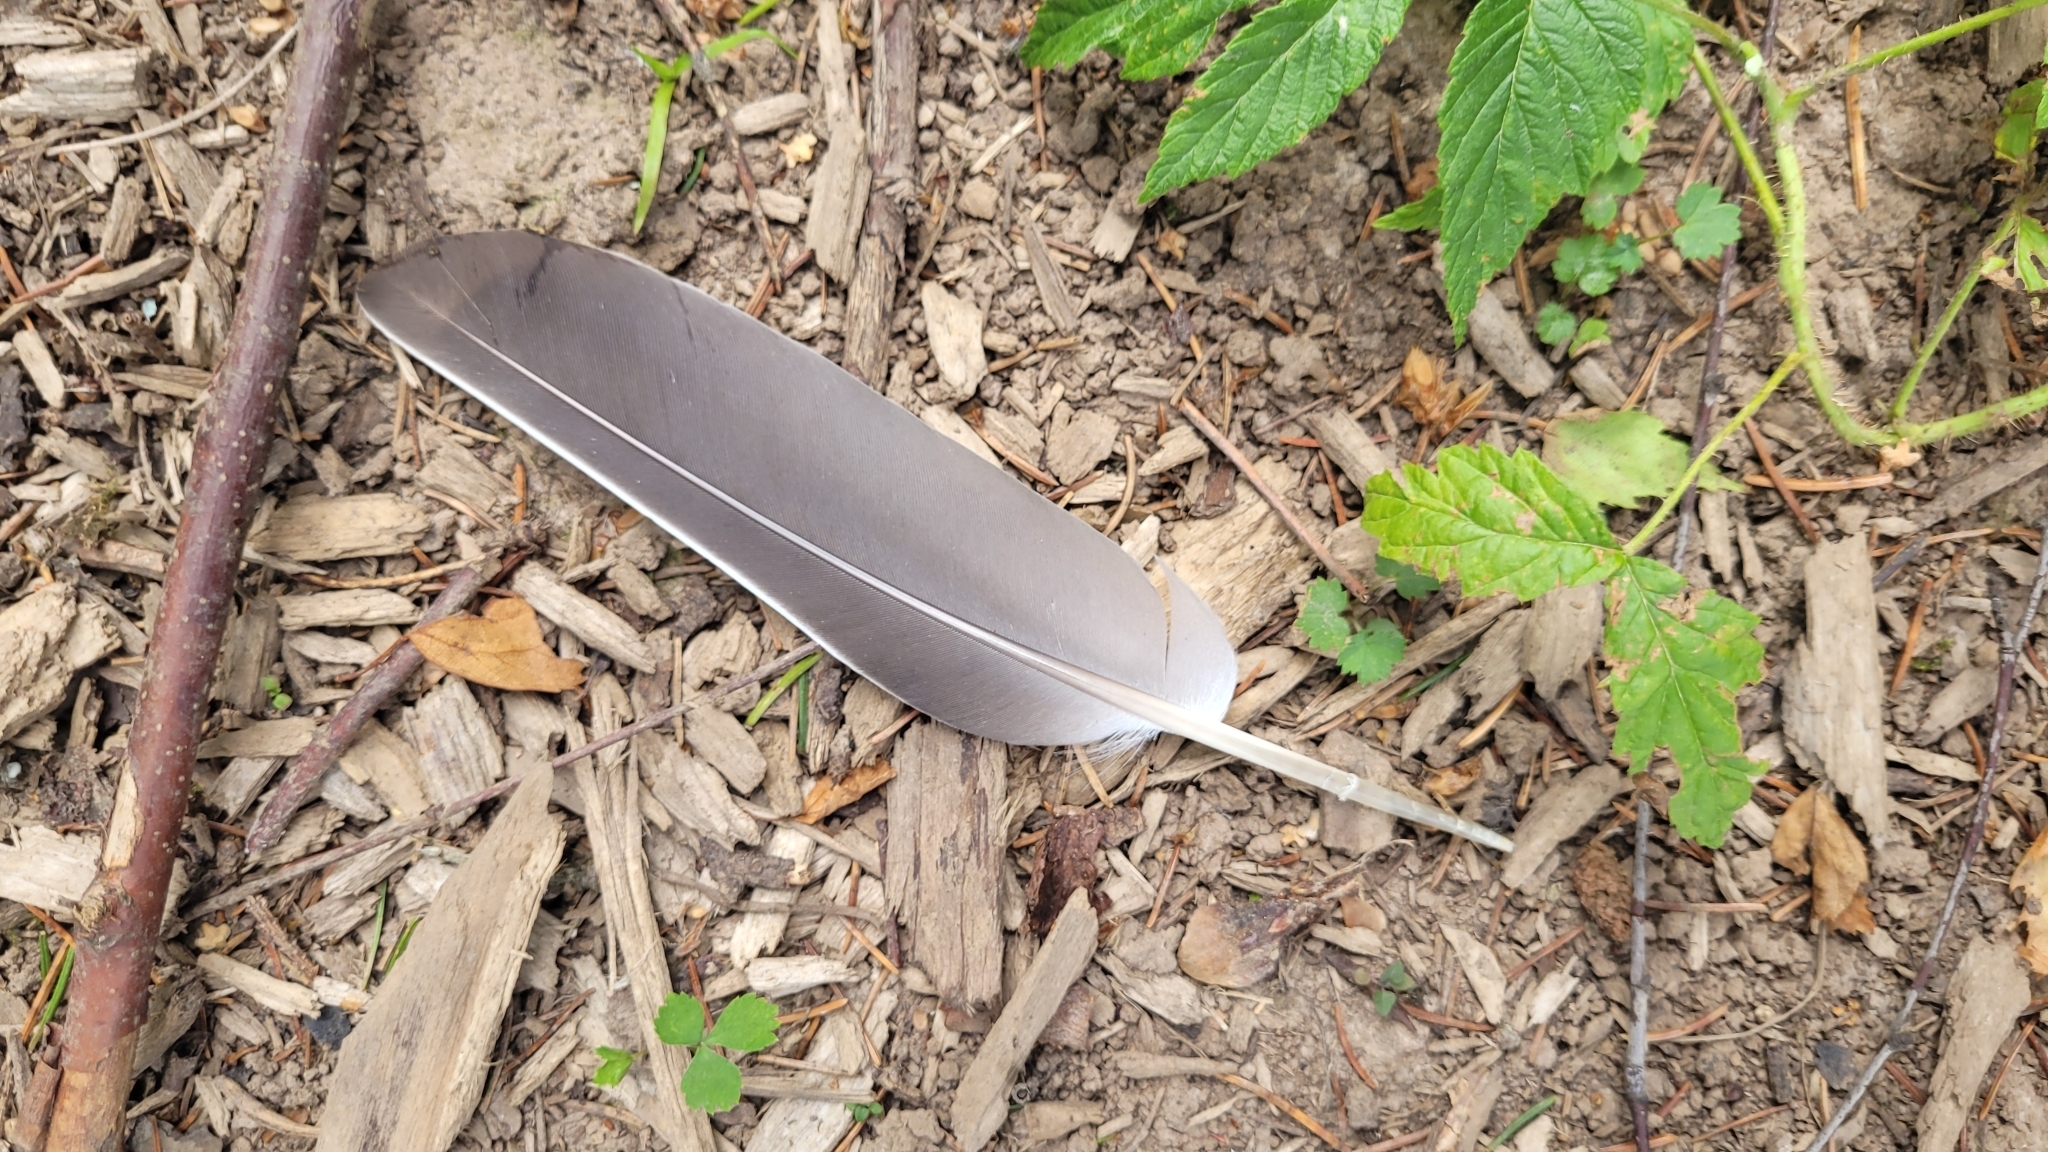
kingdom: Animalia
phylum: Chordata
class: Aves
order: Columbiformes
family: Columbidae
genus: Columba
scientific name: Columba palumbus
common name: Common wood pigeon
